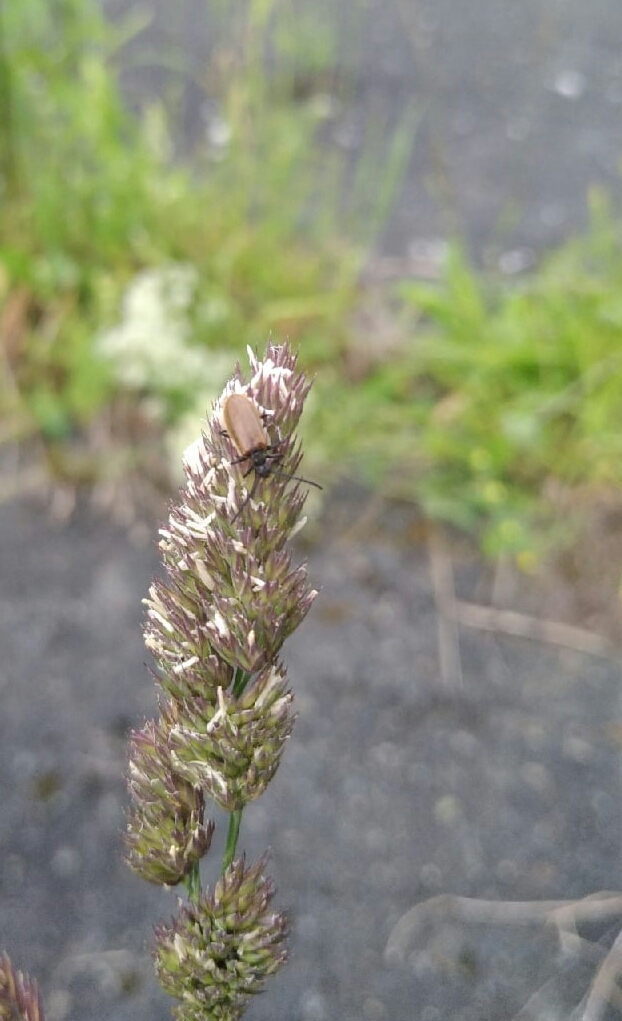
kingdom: Animalia
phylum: Arthropoda
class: Insecta
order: Coleoptera
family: Tenebrionidae
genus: Lagria
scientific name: Lagria hirta
